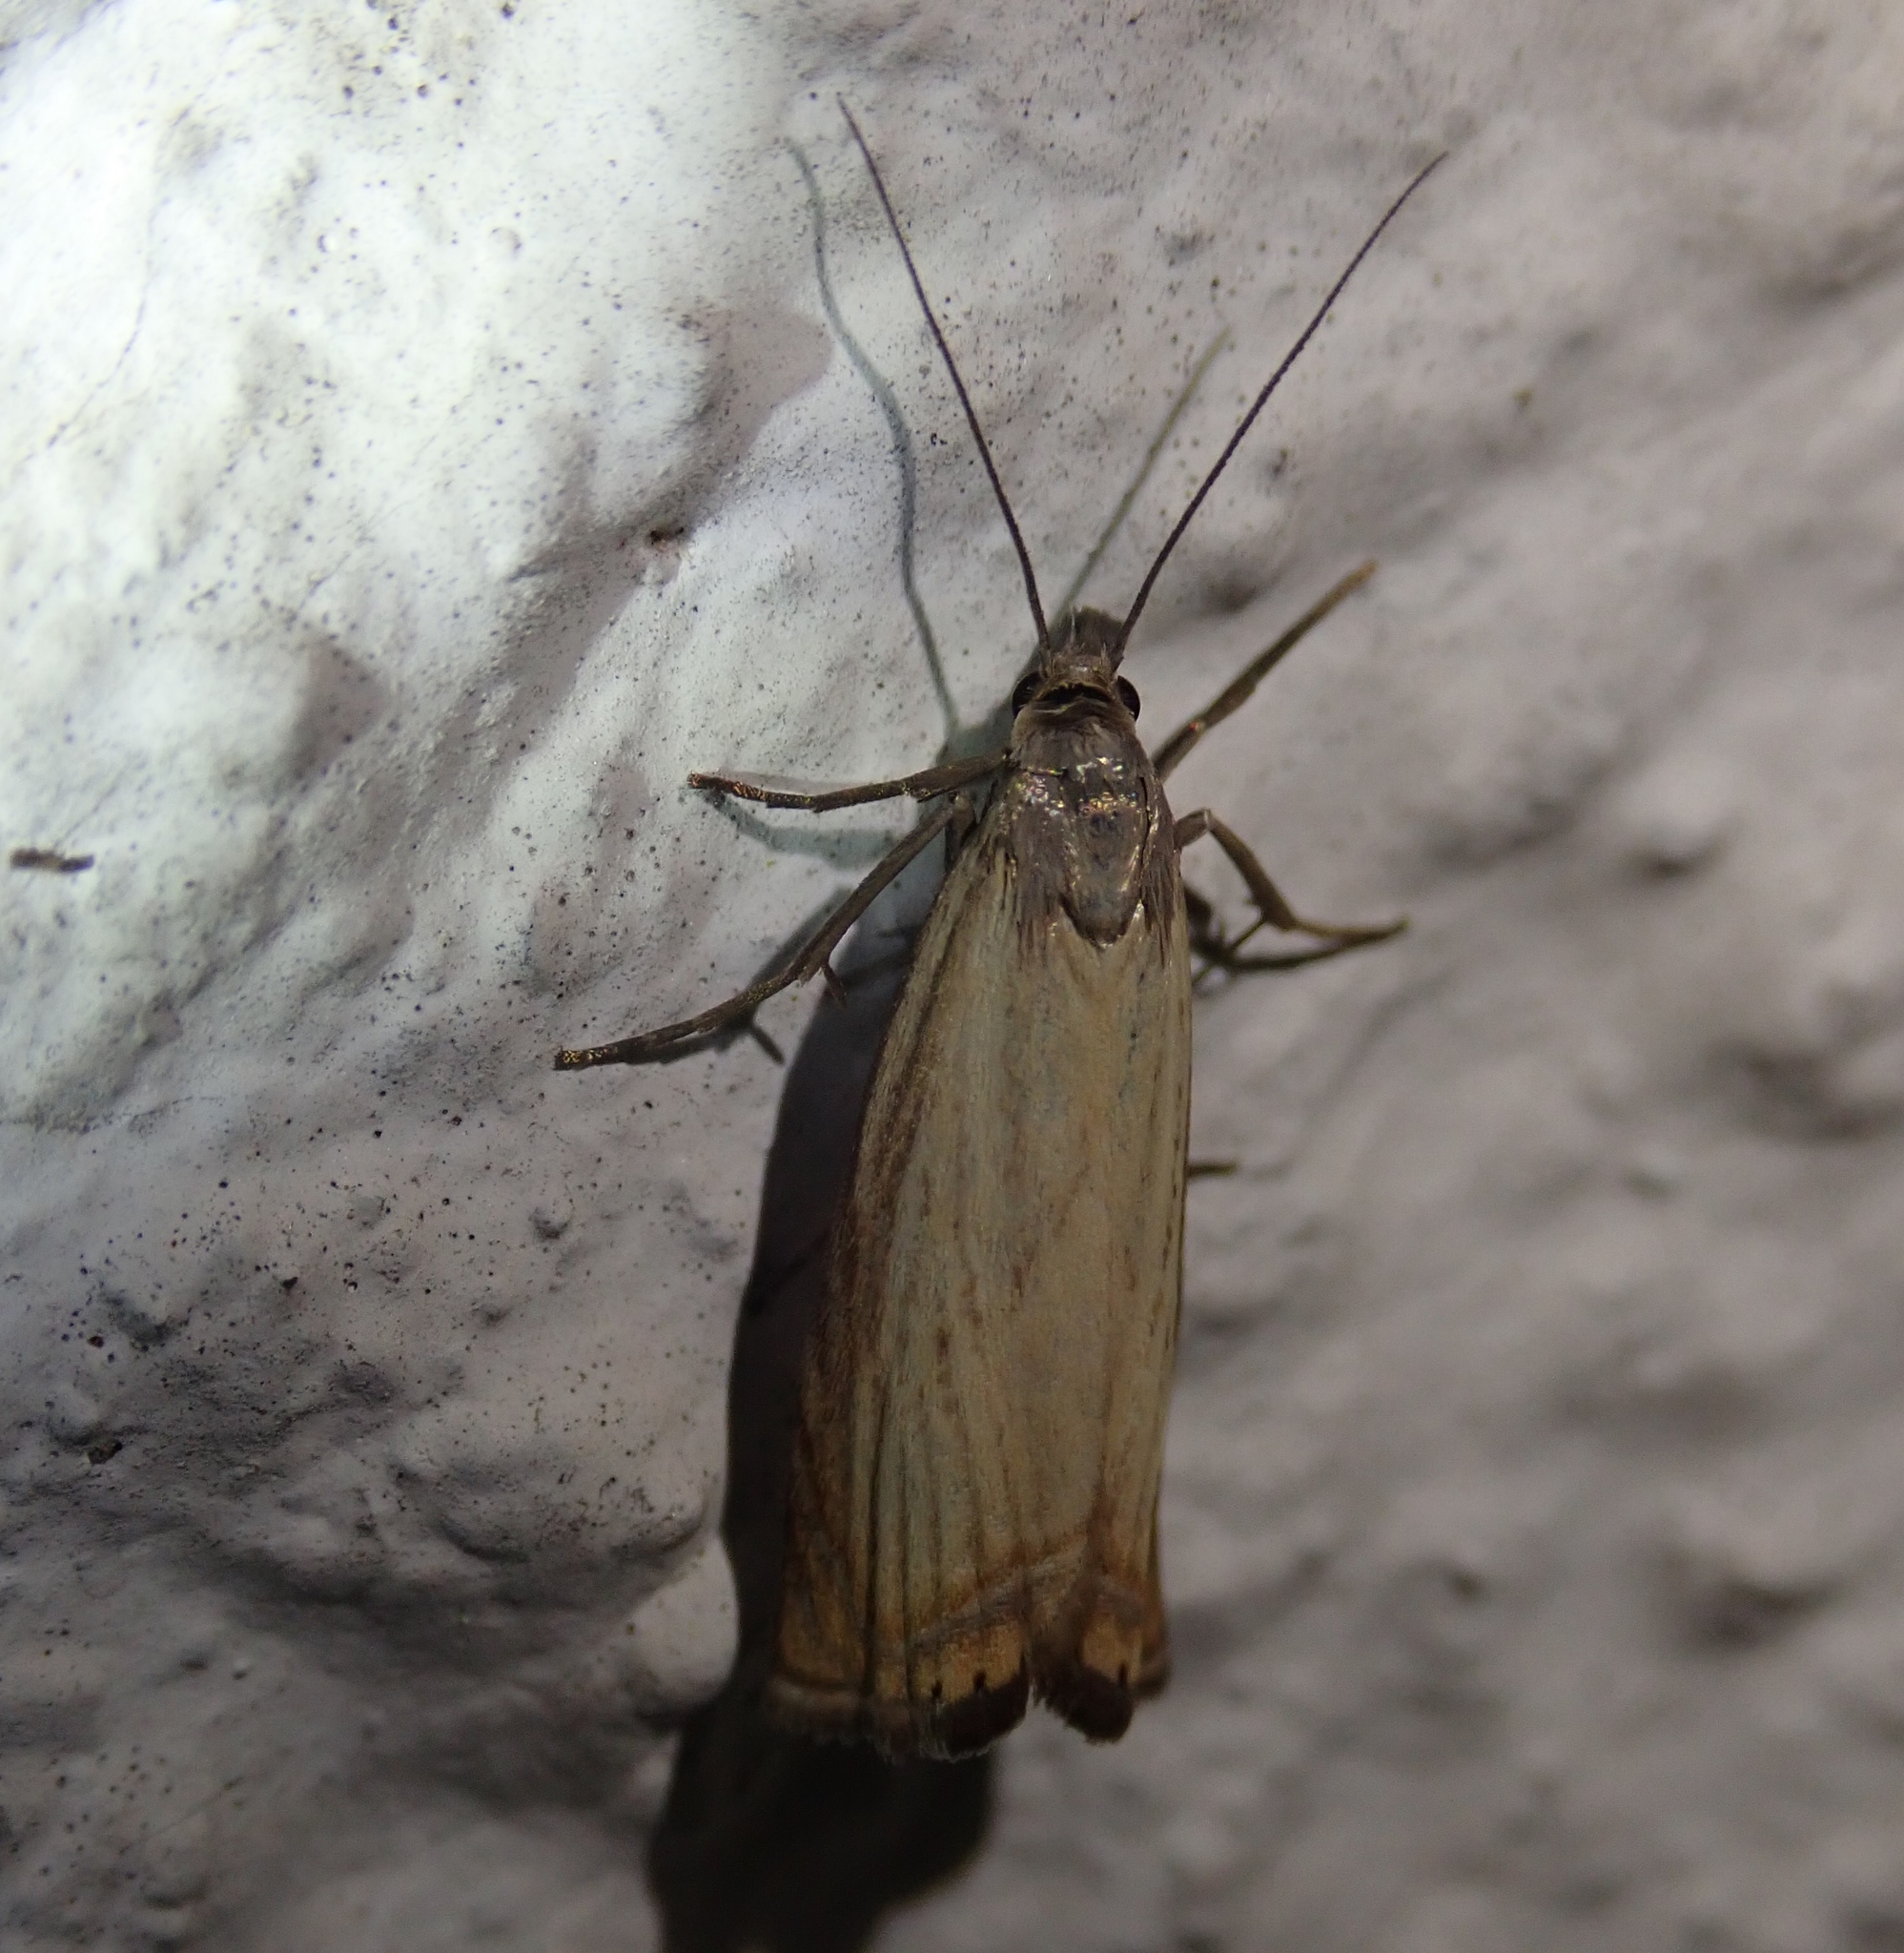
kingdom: Animalia
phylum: Arthropoda
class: Insecta
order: Lepidoptera
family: Crambidae
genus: Chrysoteuchia
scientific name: Chrysoteuchia culmella
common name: Garden grass-veneer
